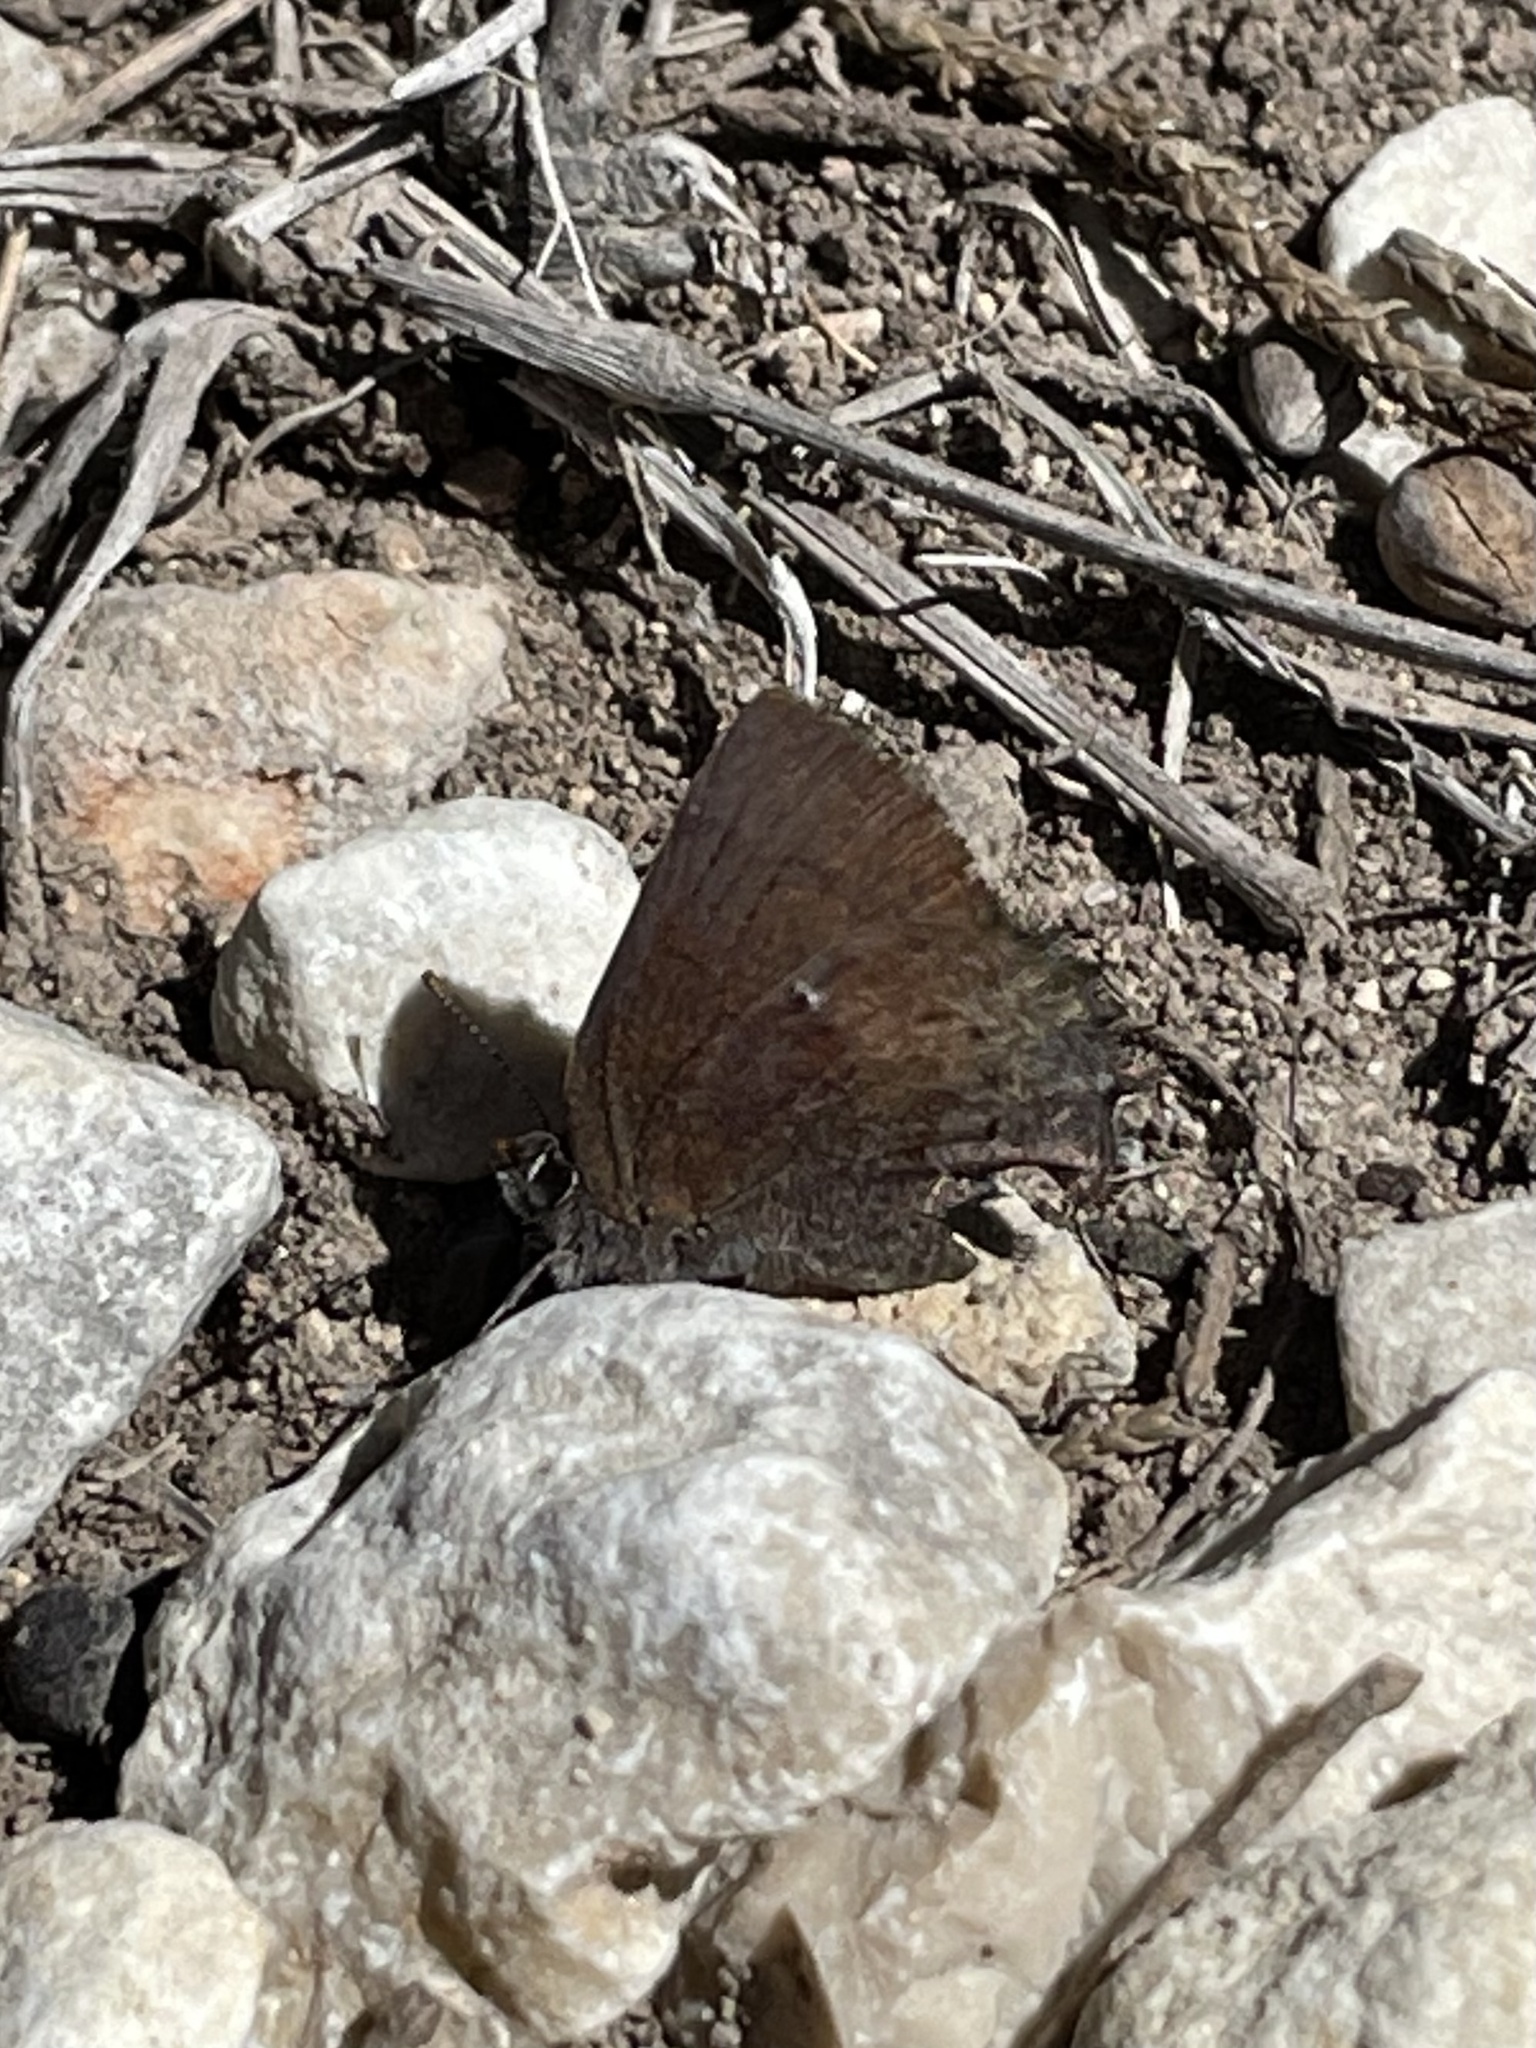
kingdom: Animalia
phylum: Arthropoda
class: Insecta
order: Lepidoptera
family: Lycaenidae
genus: Incisalia
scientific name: Incisalia henrici
